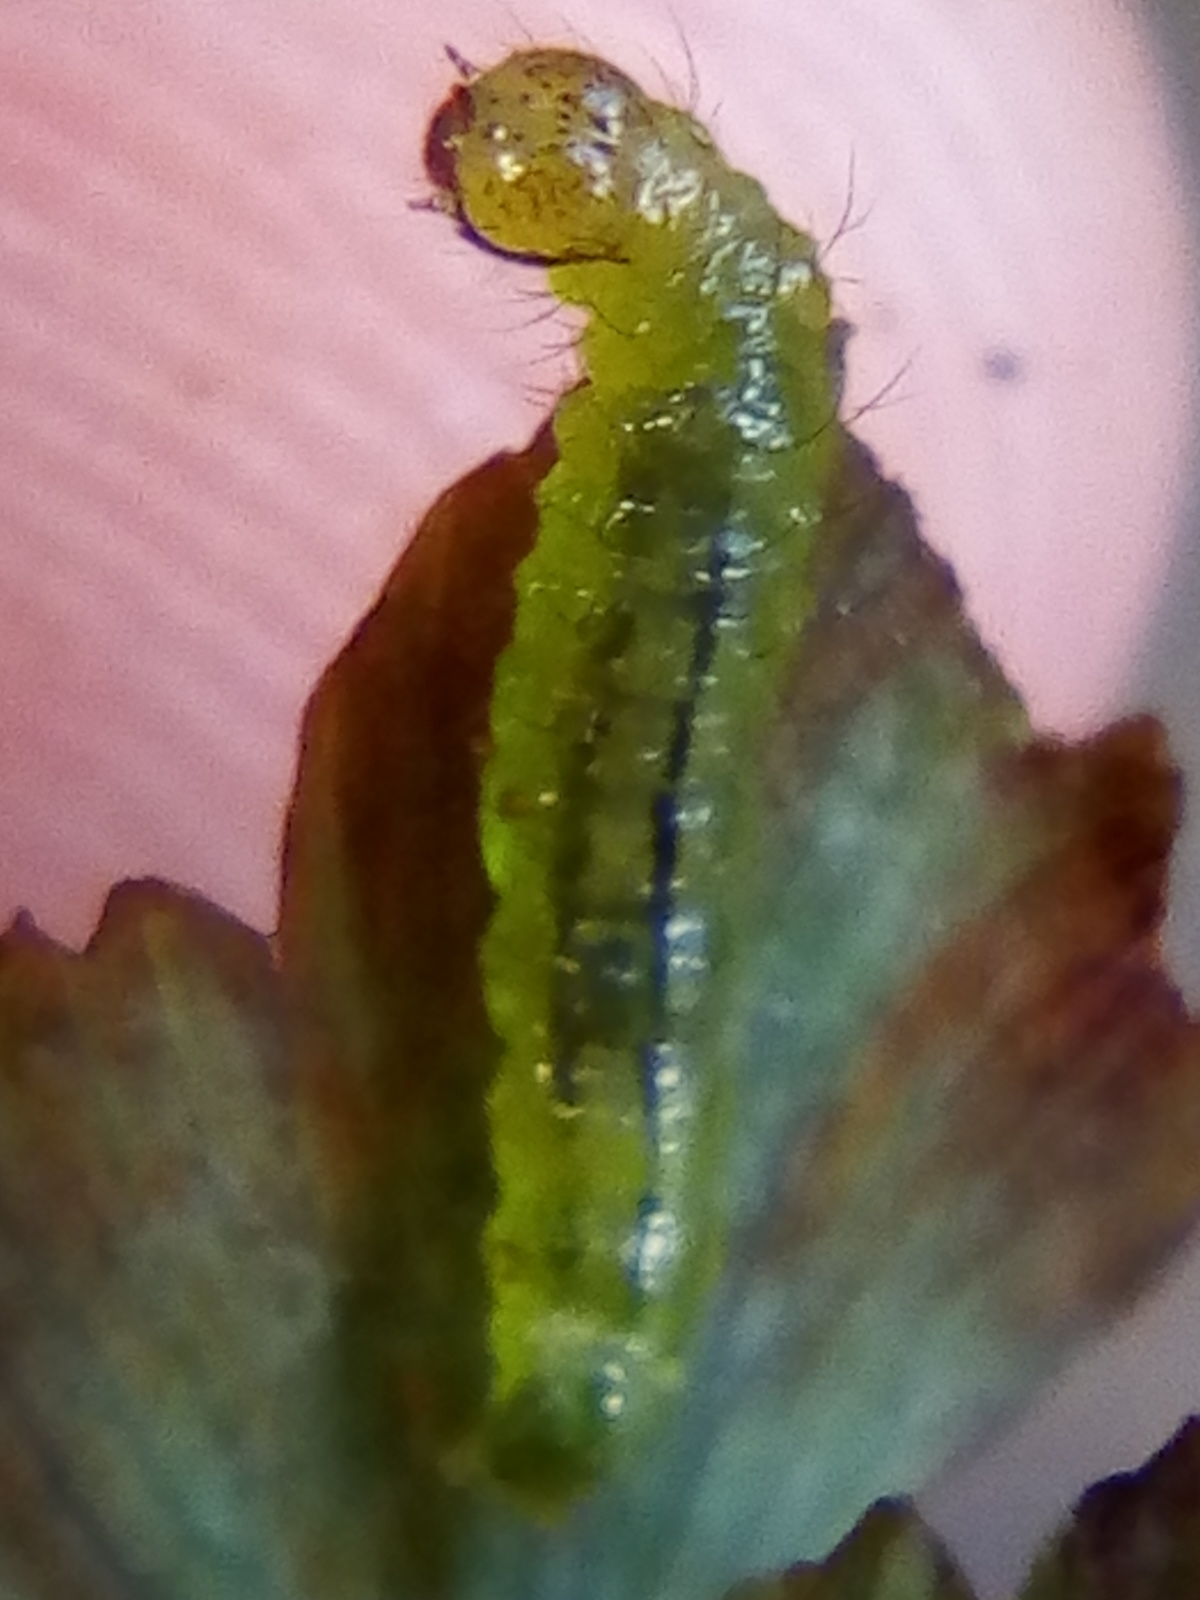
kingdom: Animalia
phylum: Arthropoda
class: Insecta
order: Lepidoptera
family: Pyralidae
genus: Musotima
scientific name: Musotima aduncalis
